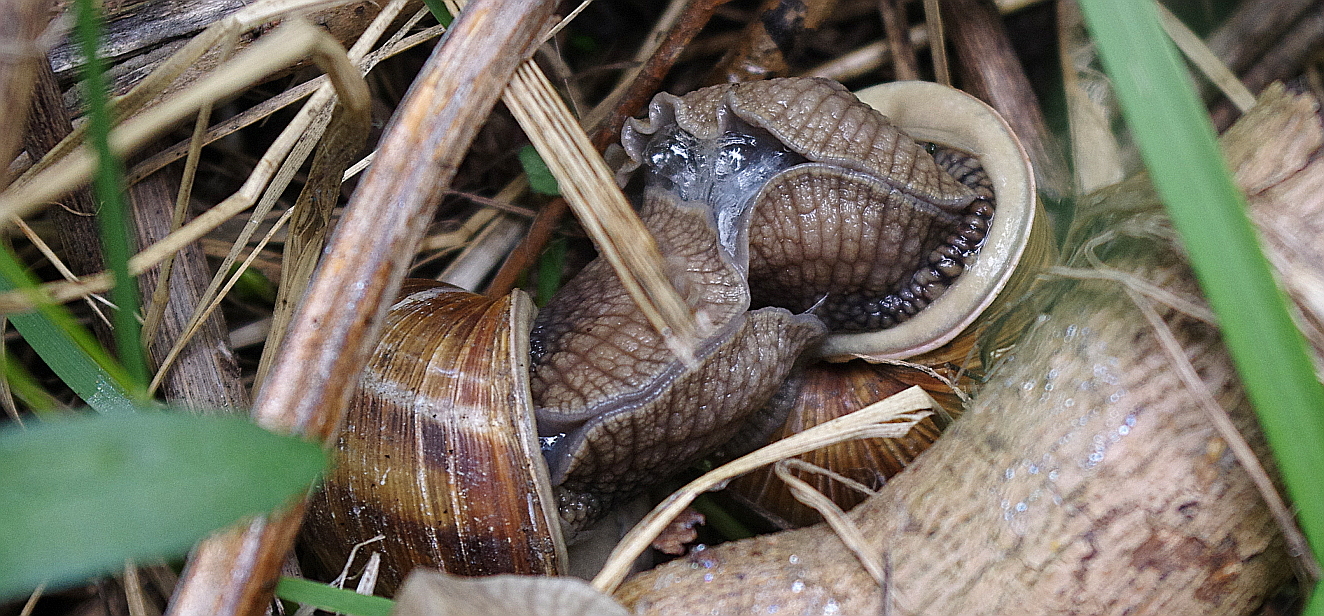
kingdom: Animalia
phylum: Mollusca
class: Gastropoda
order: Stylommatophora
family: Helicidae
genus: Helix
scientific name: Helix pomatia
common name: Roman snail
